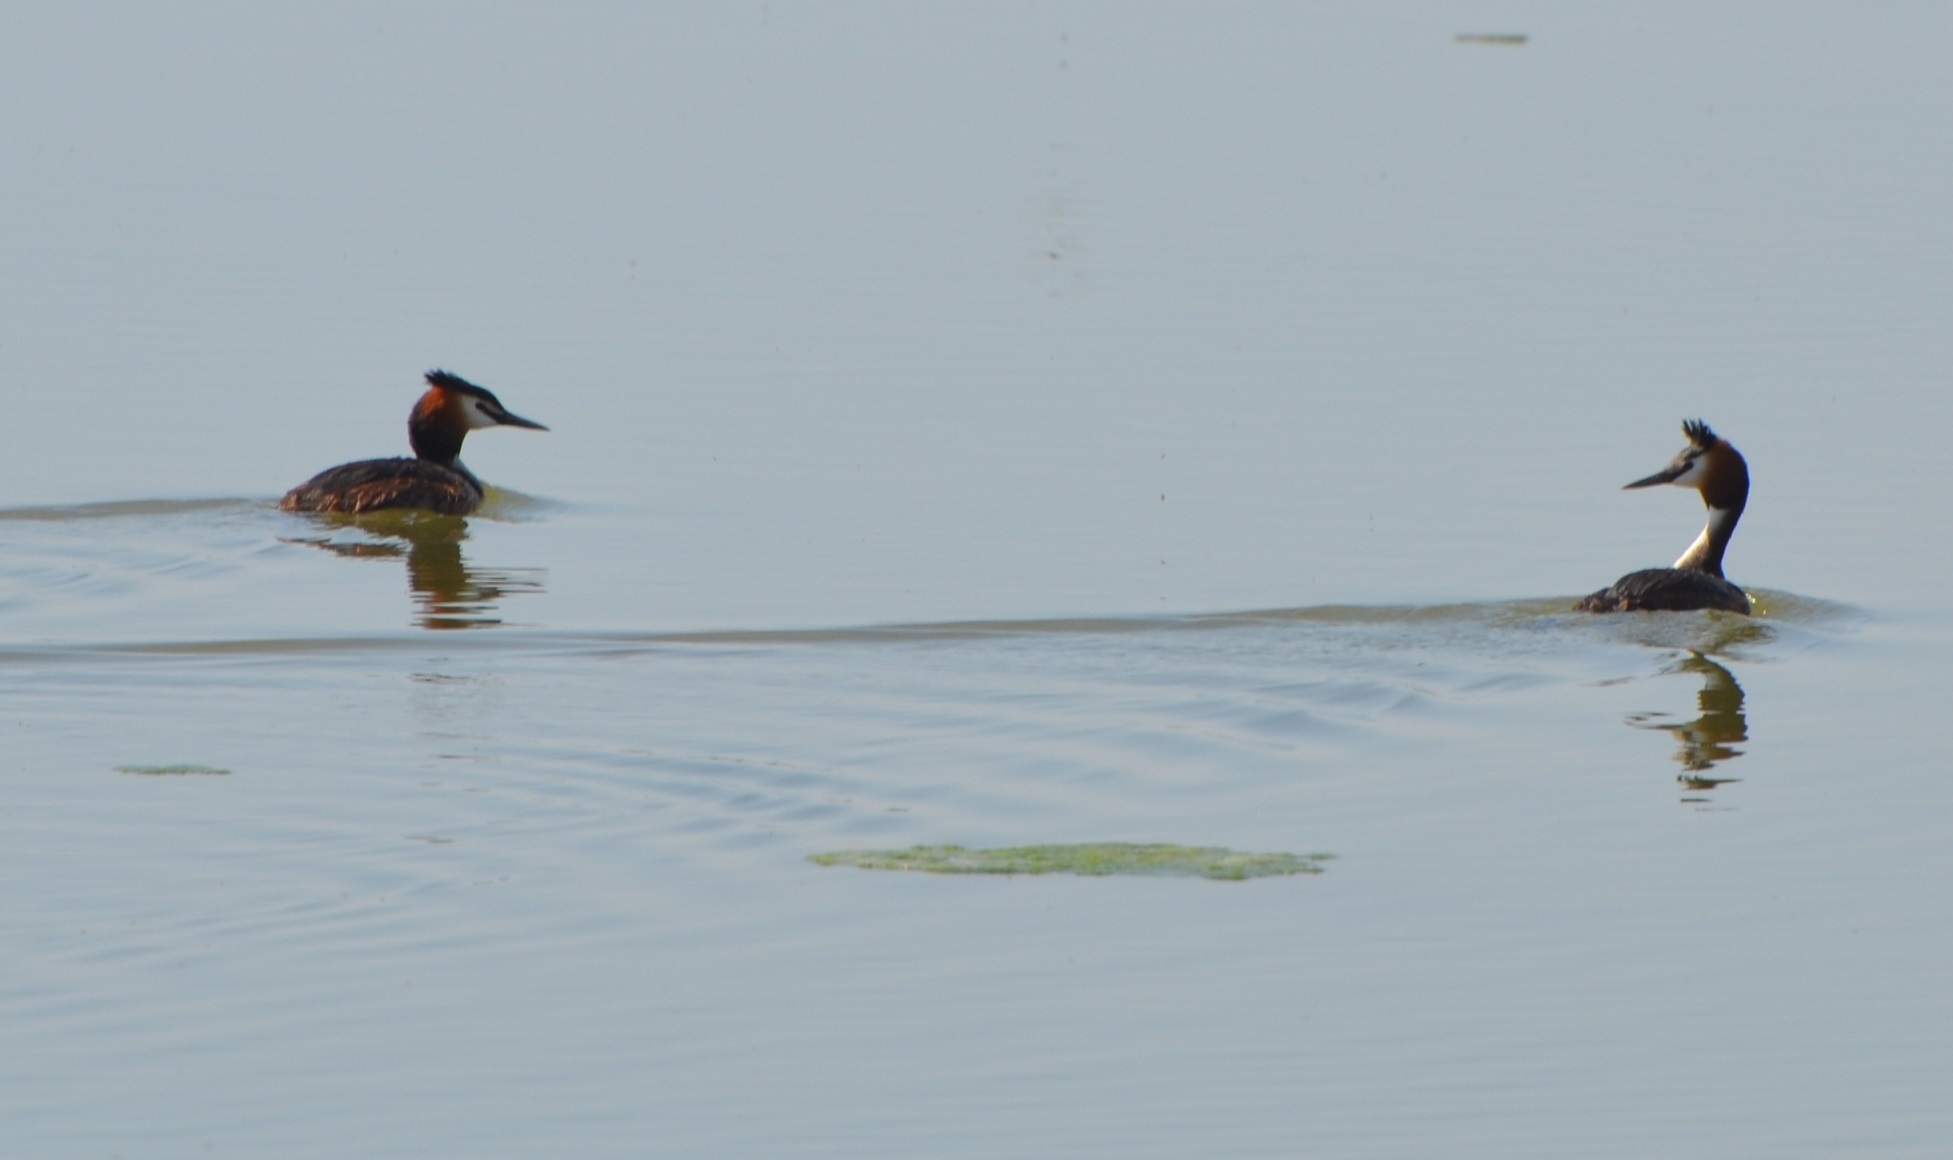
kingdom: Animalia
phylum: Chordata
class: Aves
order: Podicipediformes
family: Podicipedidae
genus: Podiceps
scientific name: Podiceps cristatus
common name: Great crested grebe
